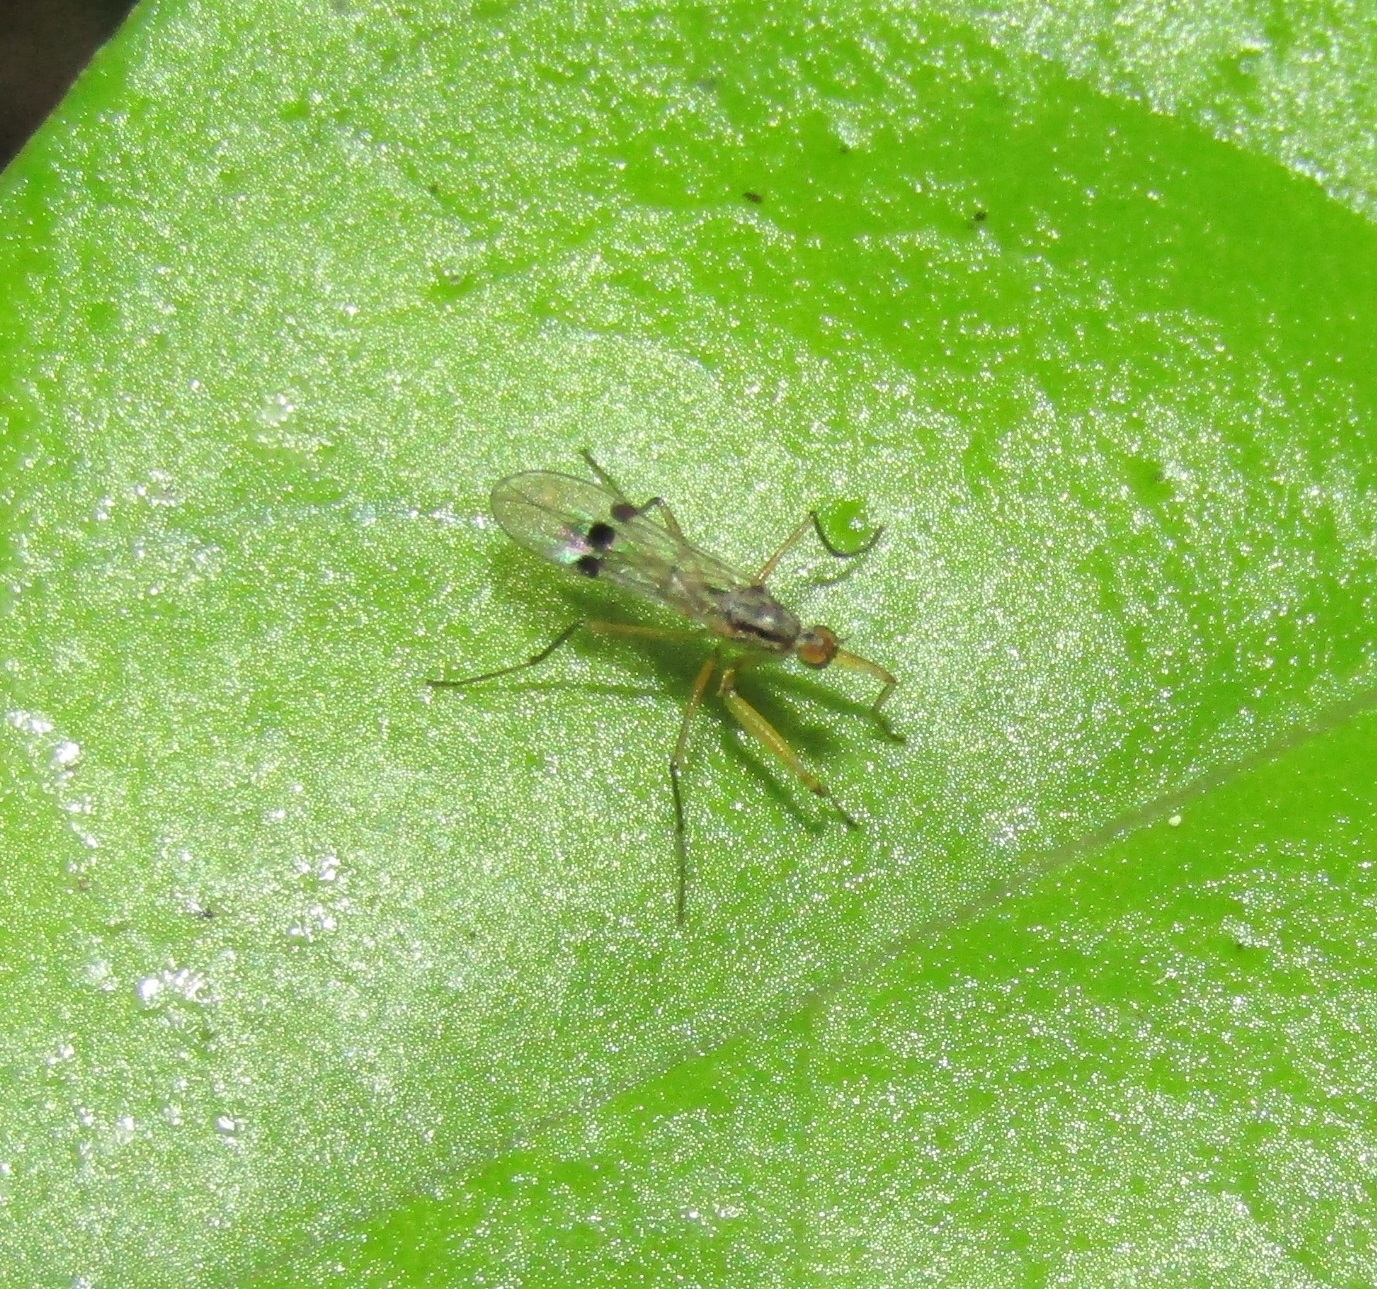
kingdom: Animalia
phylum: Arthropoda
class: Insecta
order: Diptera
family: Empididae
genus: Chelipoda
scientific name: Chelipoda mirabilis
